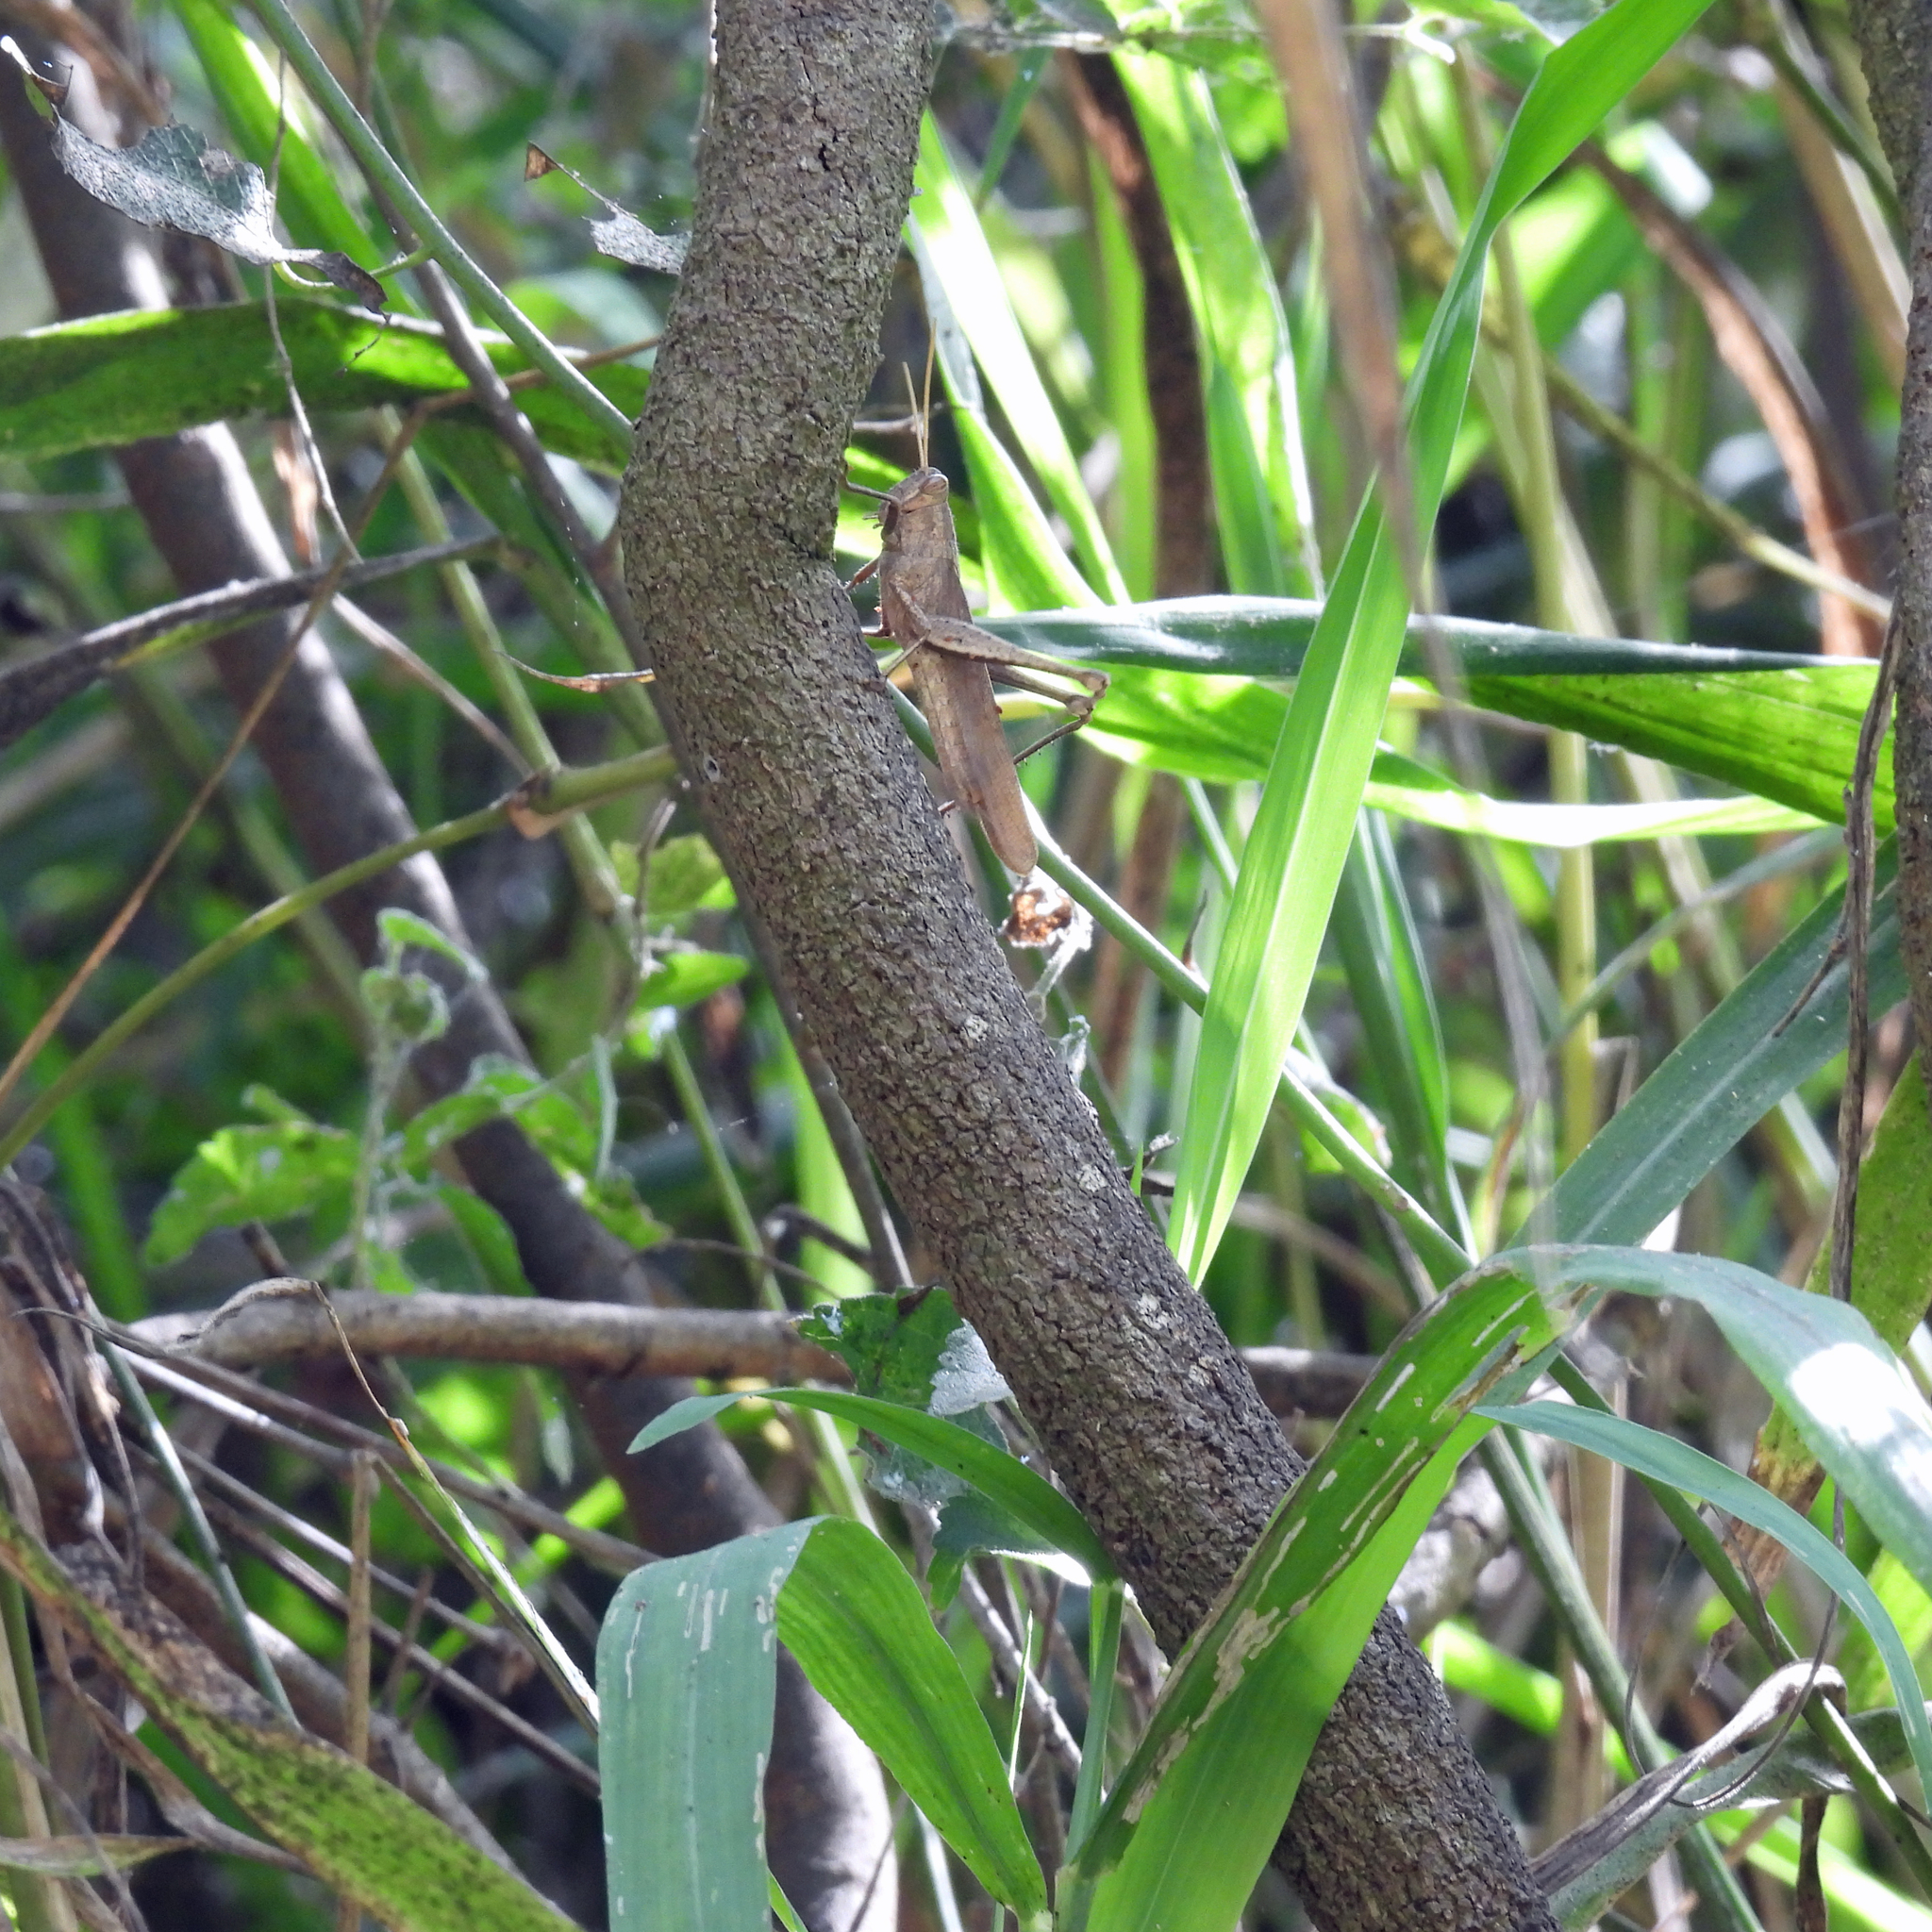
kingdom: Animalia
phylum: Arthropoda
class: Insecta
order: Orthoptera
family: Acrididae
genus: Schistocerca
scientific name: Schistocerca impleta
